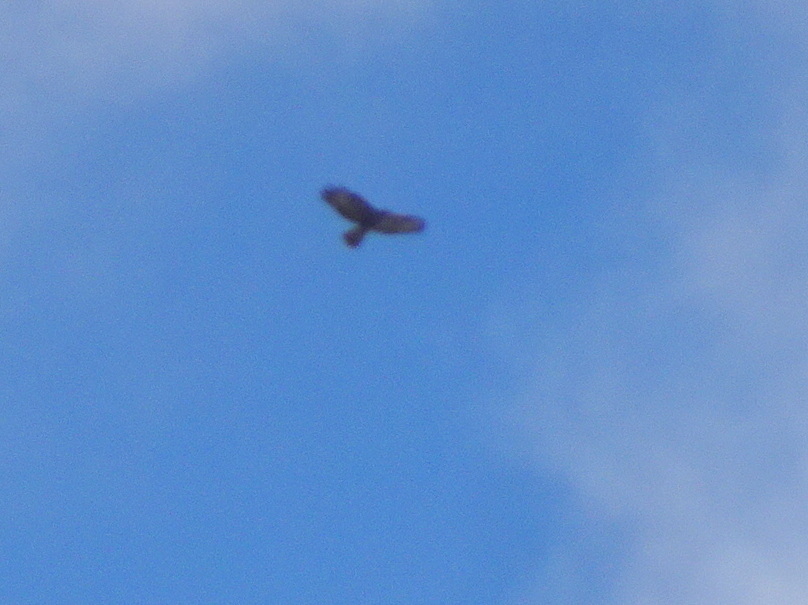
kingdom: Animalia
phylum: Chordata
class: Aves
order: Accipitriformes
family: Accipitridae
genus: Buteo
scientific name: Buteo buteo
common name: Common buzzard
